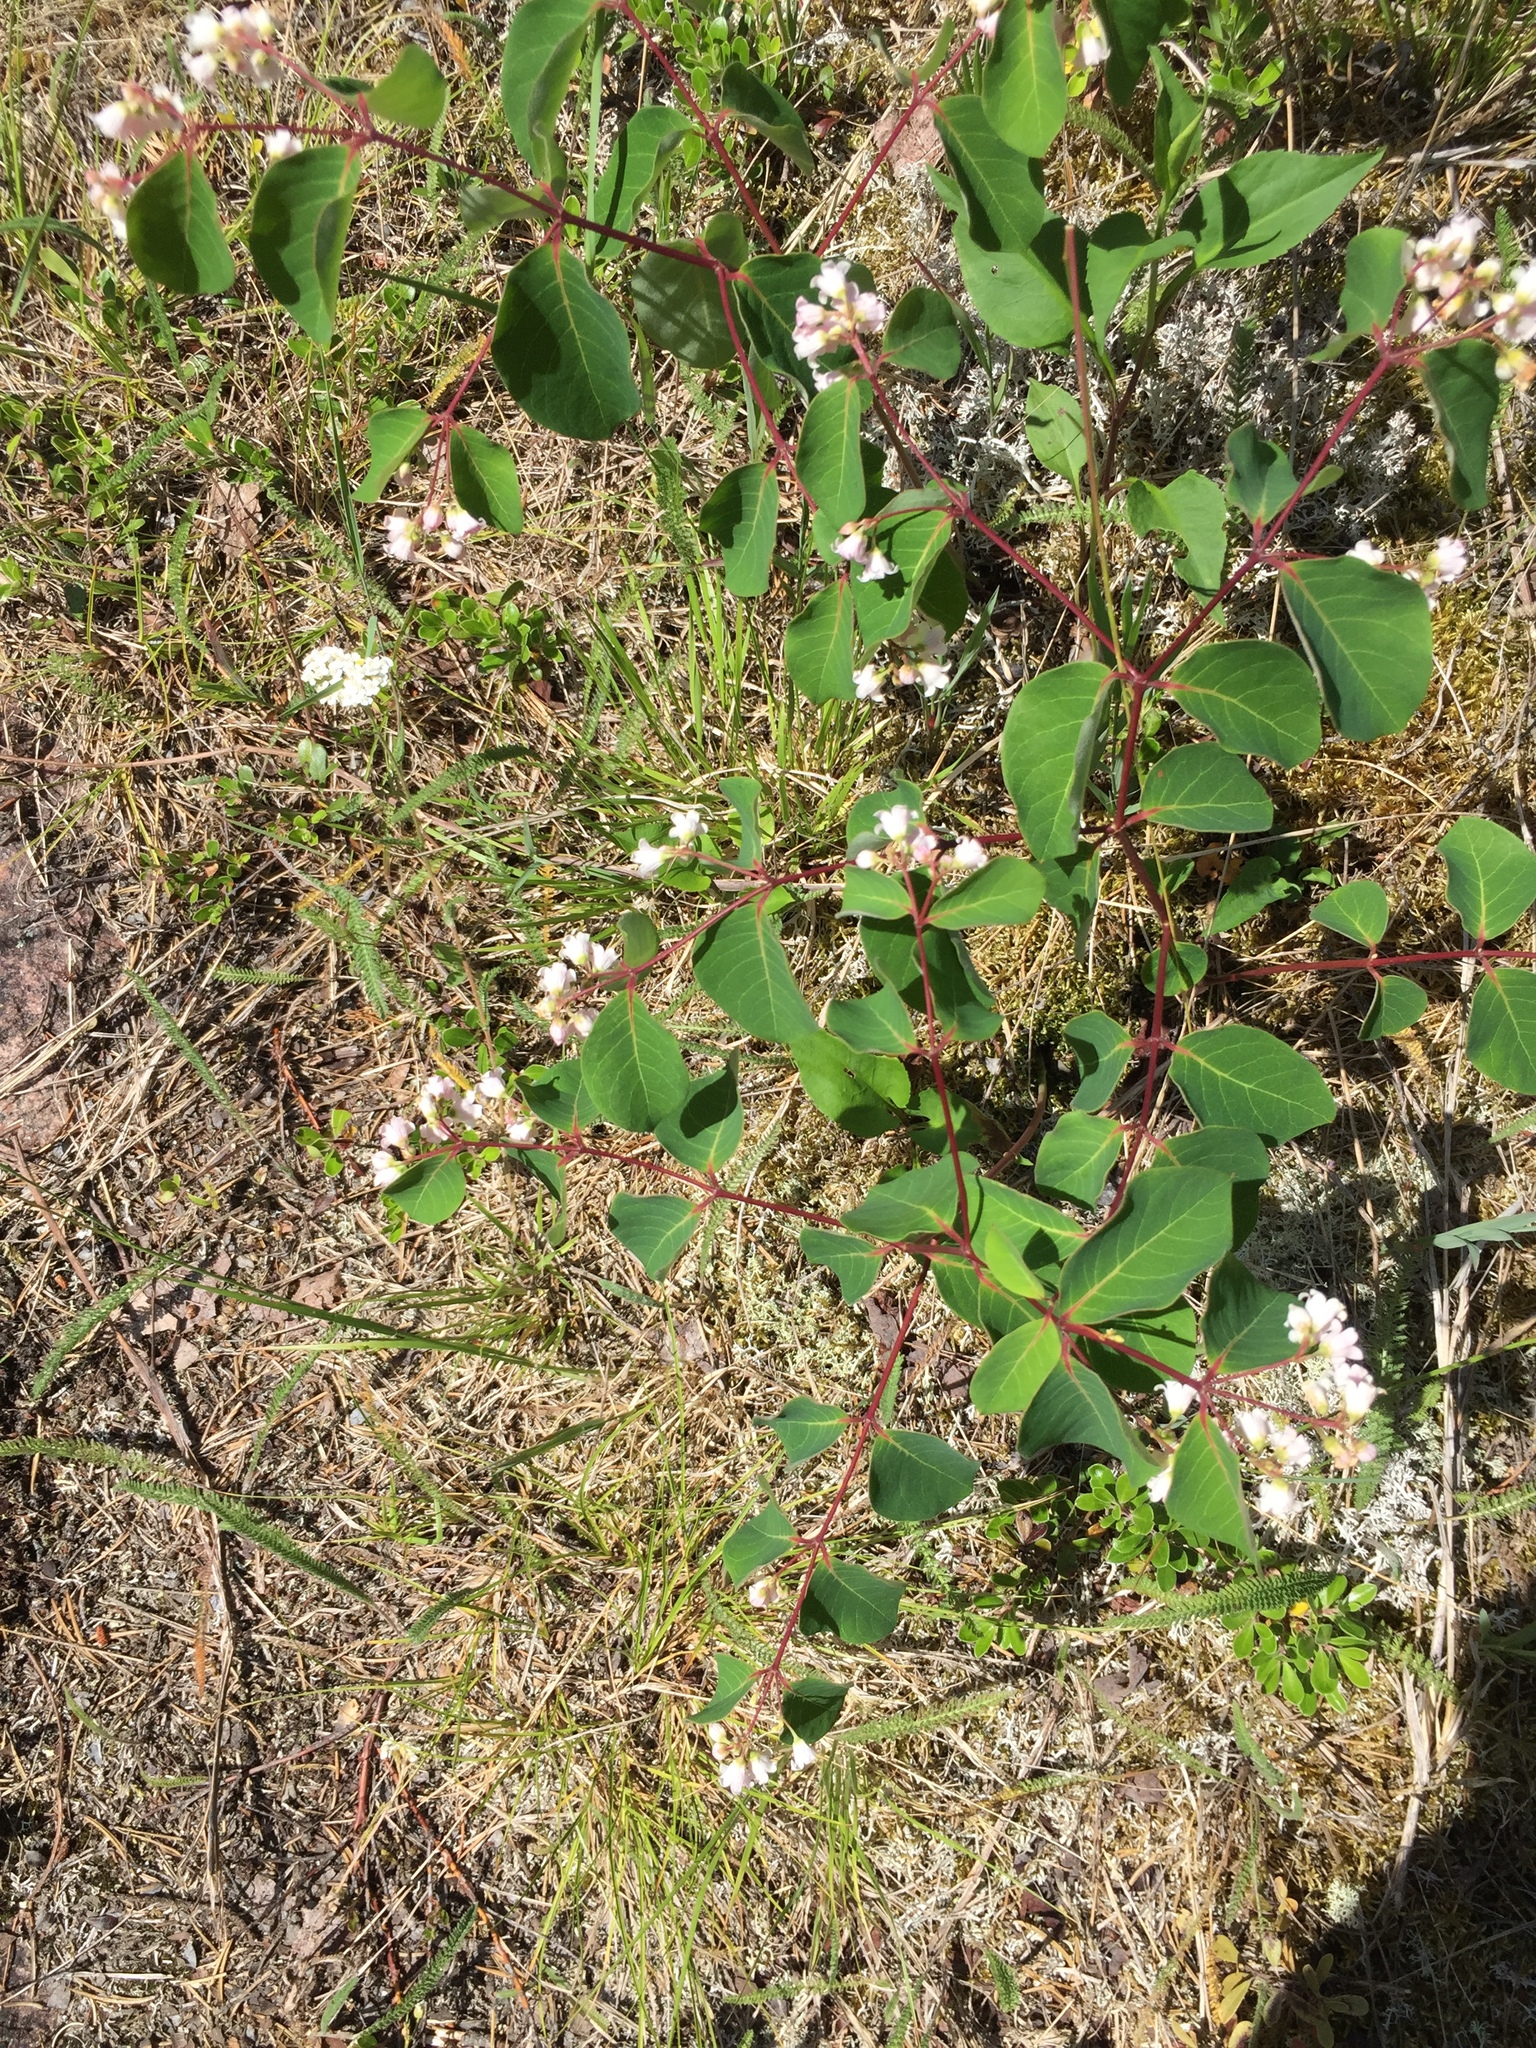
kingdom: Plantae
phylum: Tracheophyta
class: Magnoliopsida
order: Gentianales
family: Apocynaceae
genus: Apocynum
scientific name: Apocynum androsaemifolium
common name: Spreading dogbane
